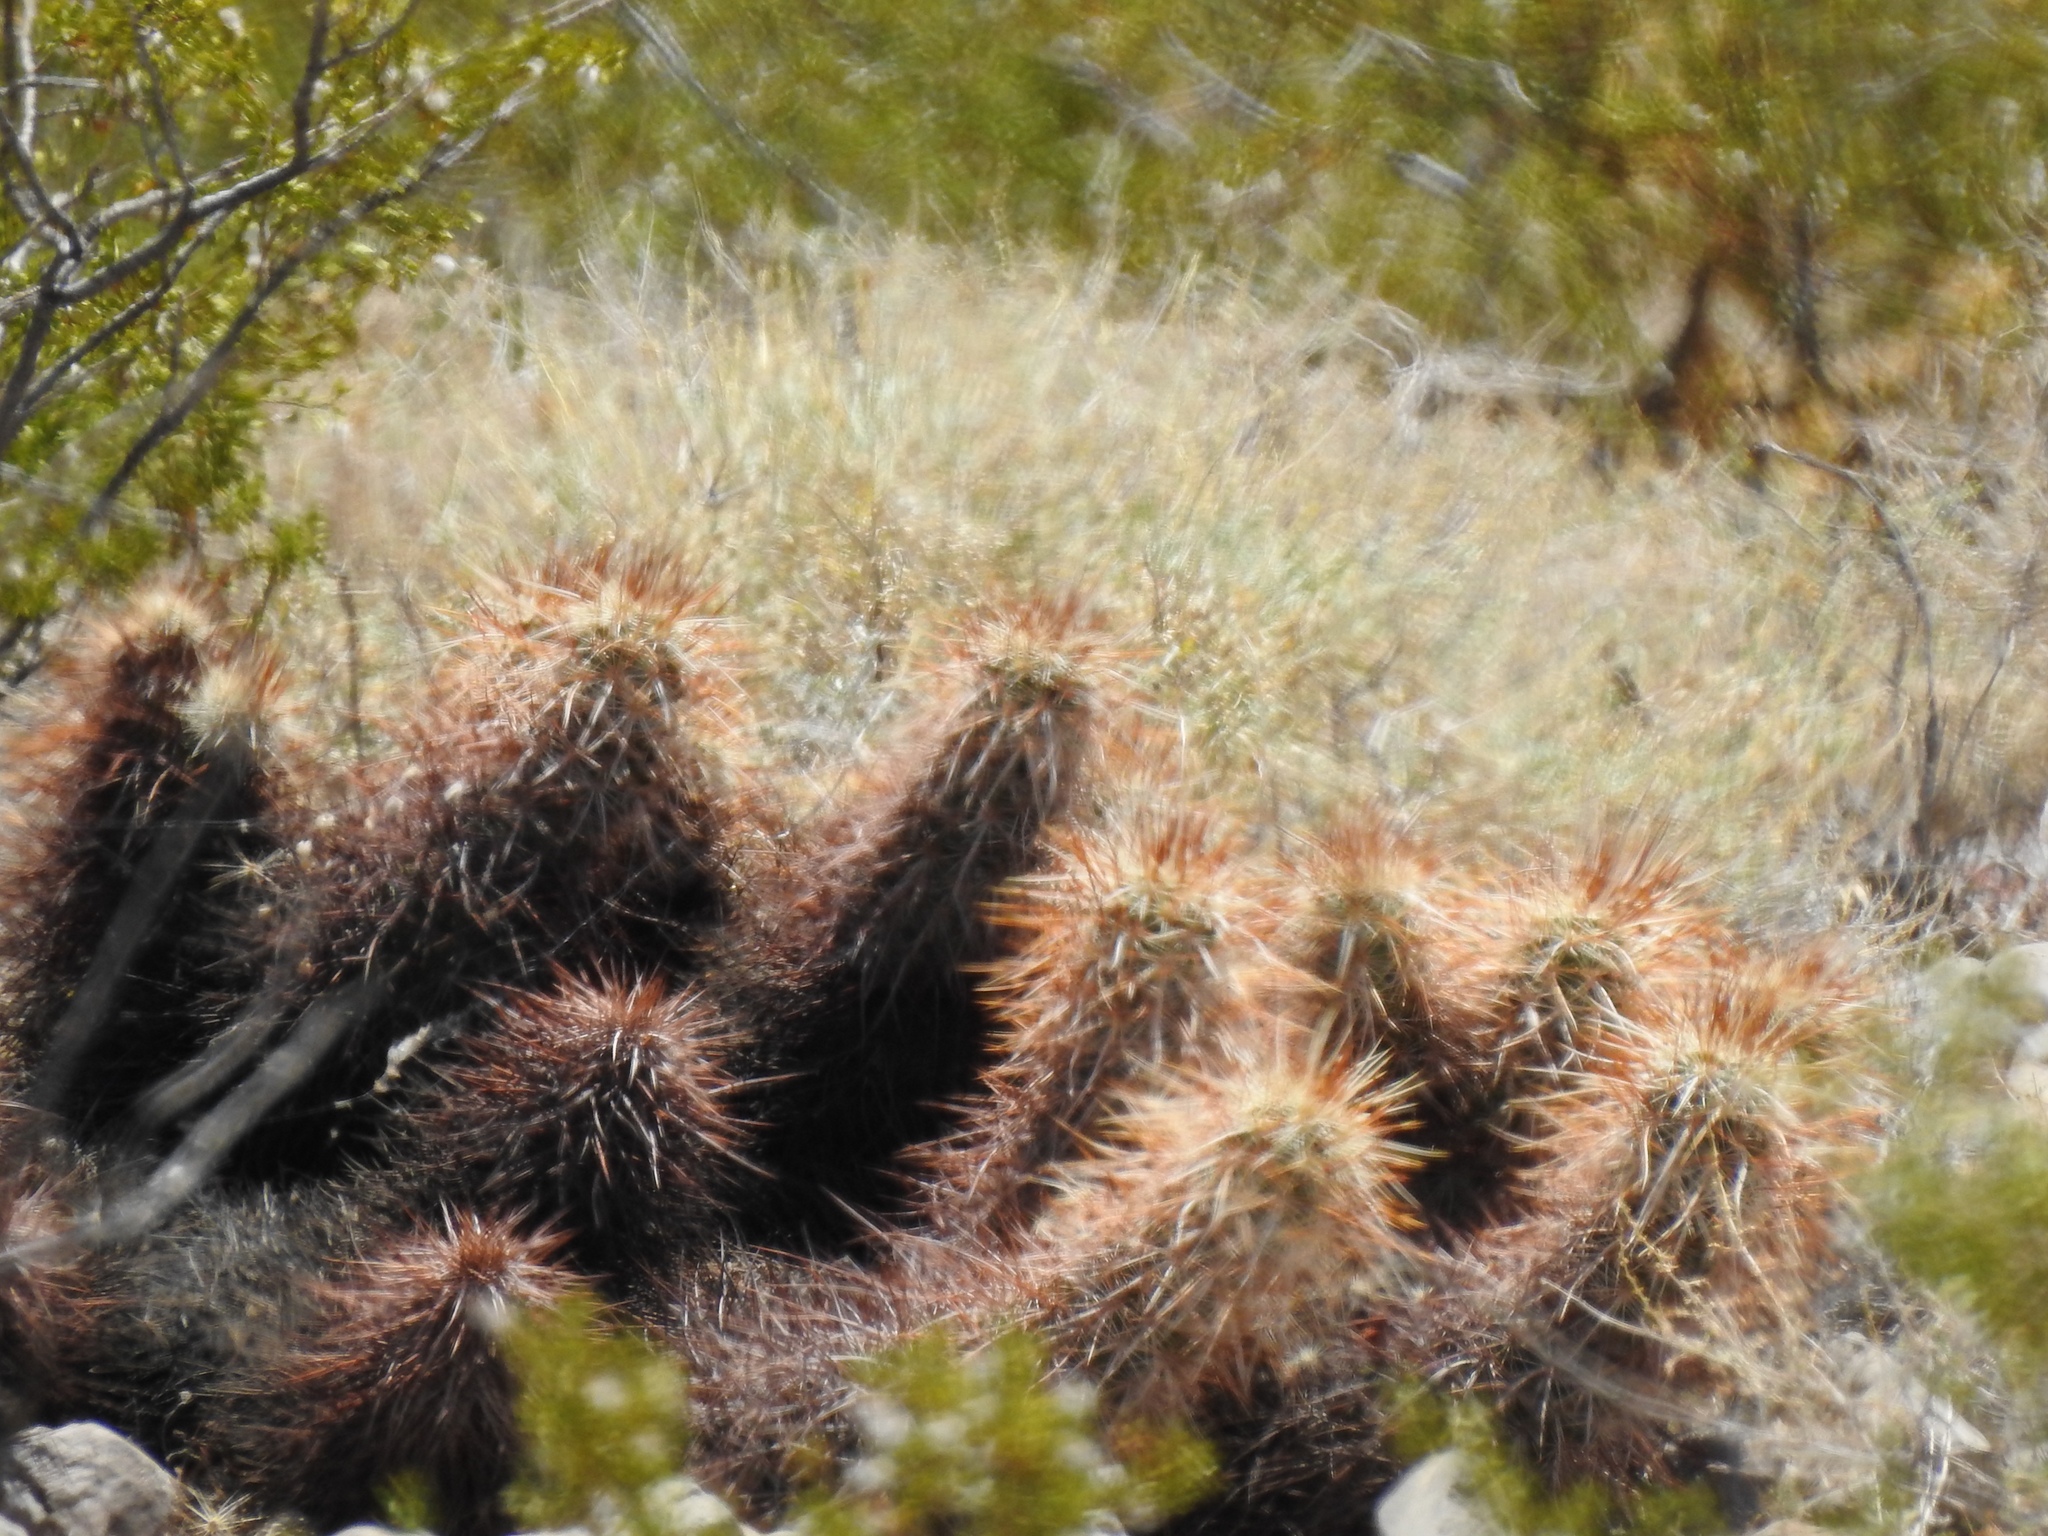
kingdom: Plantae
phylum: Tracheophyta
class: Magnoliopsida
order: Caryophyllales
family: Cactaceae
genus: Echinocereus
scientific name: Echinocereus engelmannii
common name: Engelmann's hedgehog cactus
